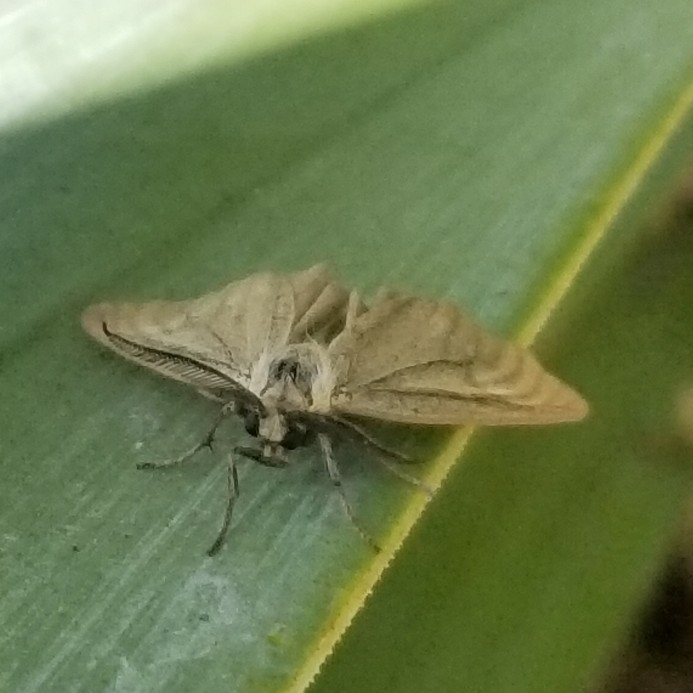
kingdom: Animalia
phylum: Arthropoda
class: Insecta
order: Lepidoptera
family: Notodontidae
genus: Phryganidia
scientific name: Phryganidia californica
